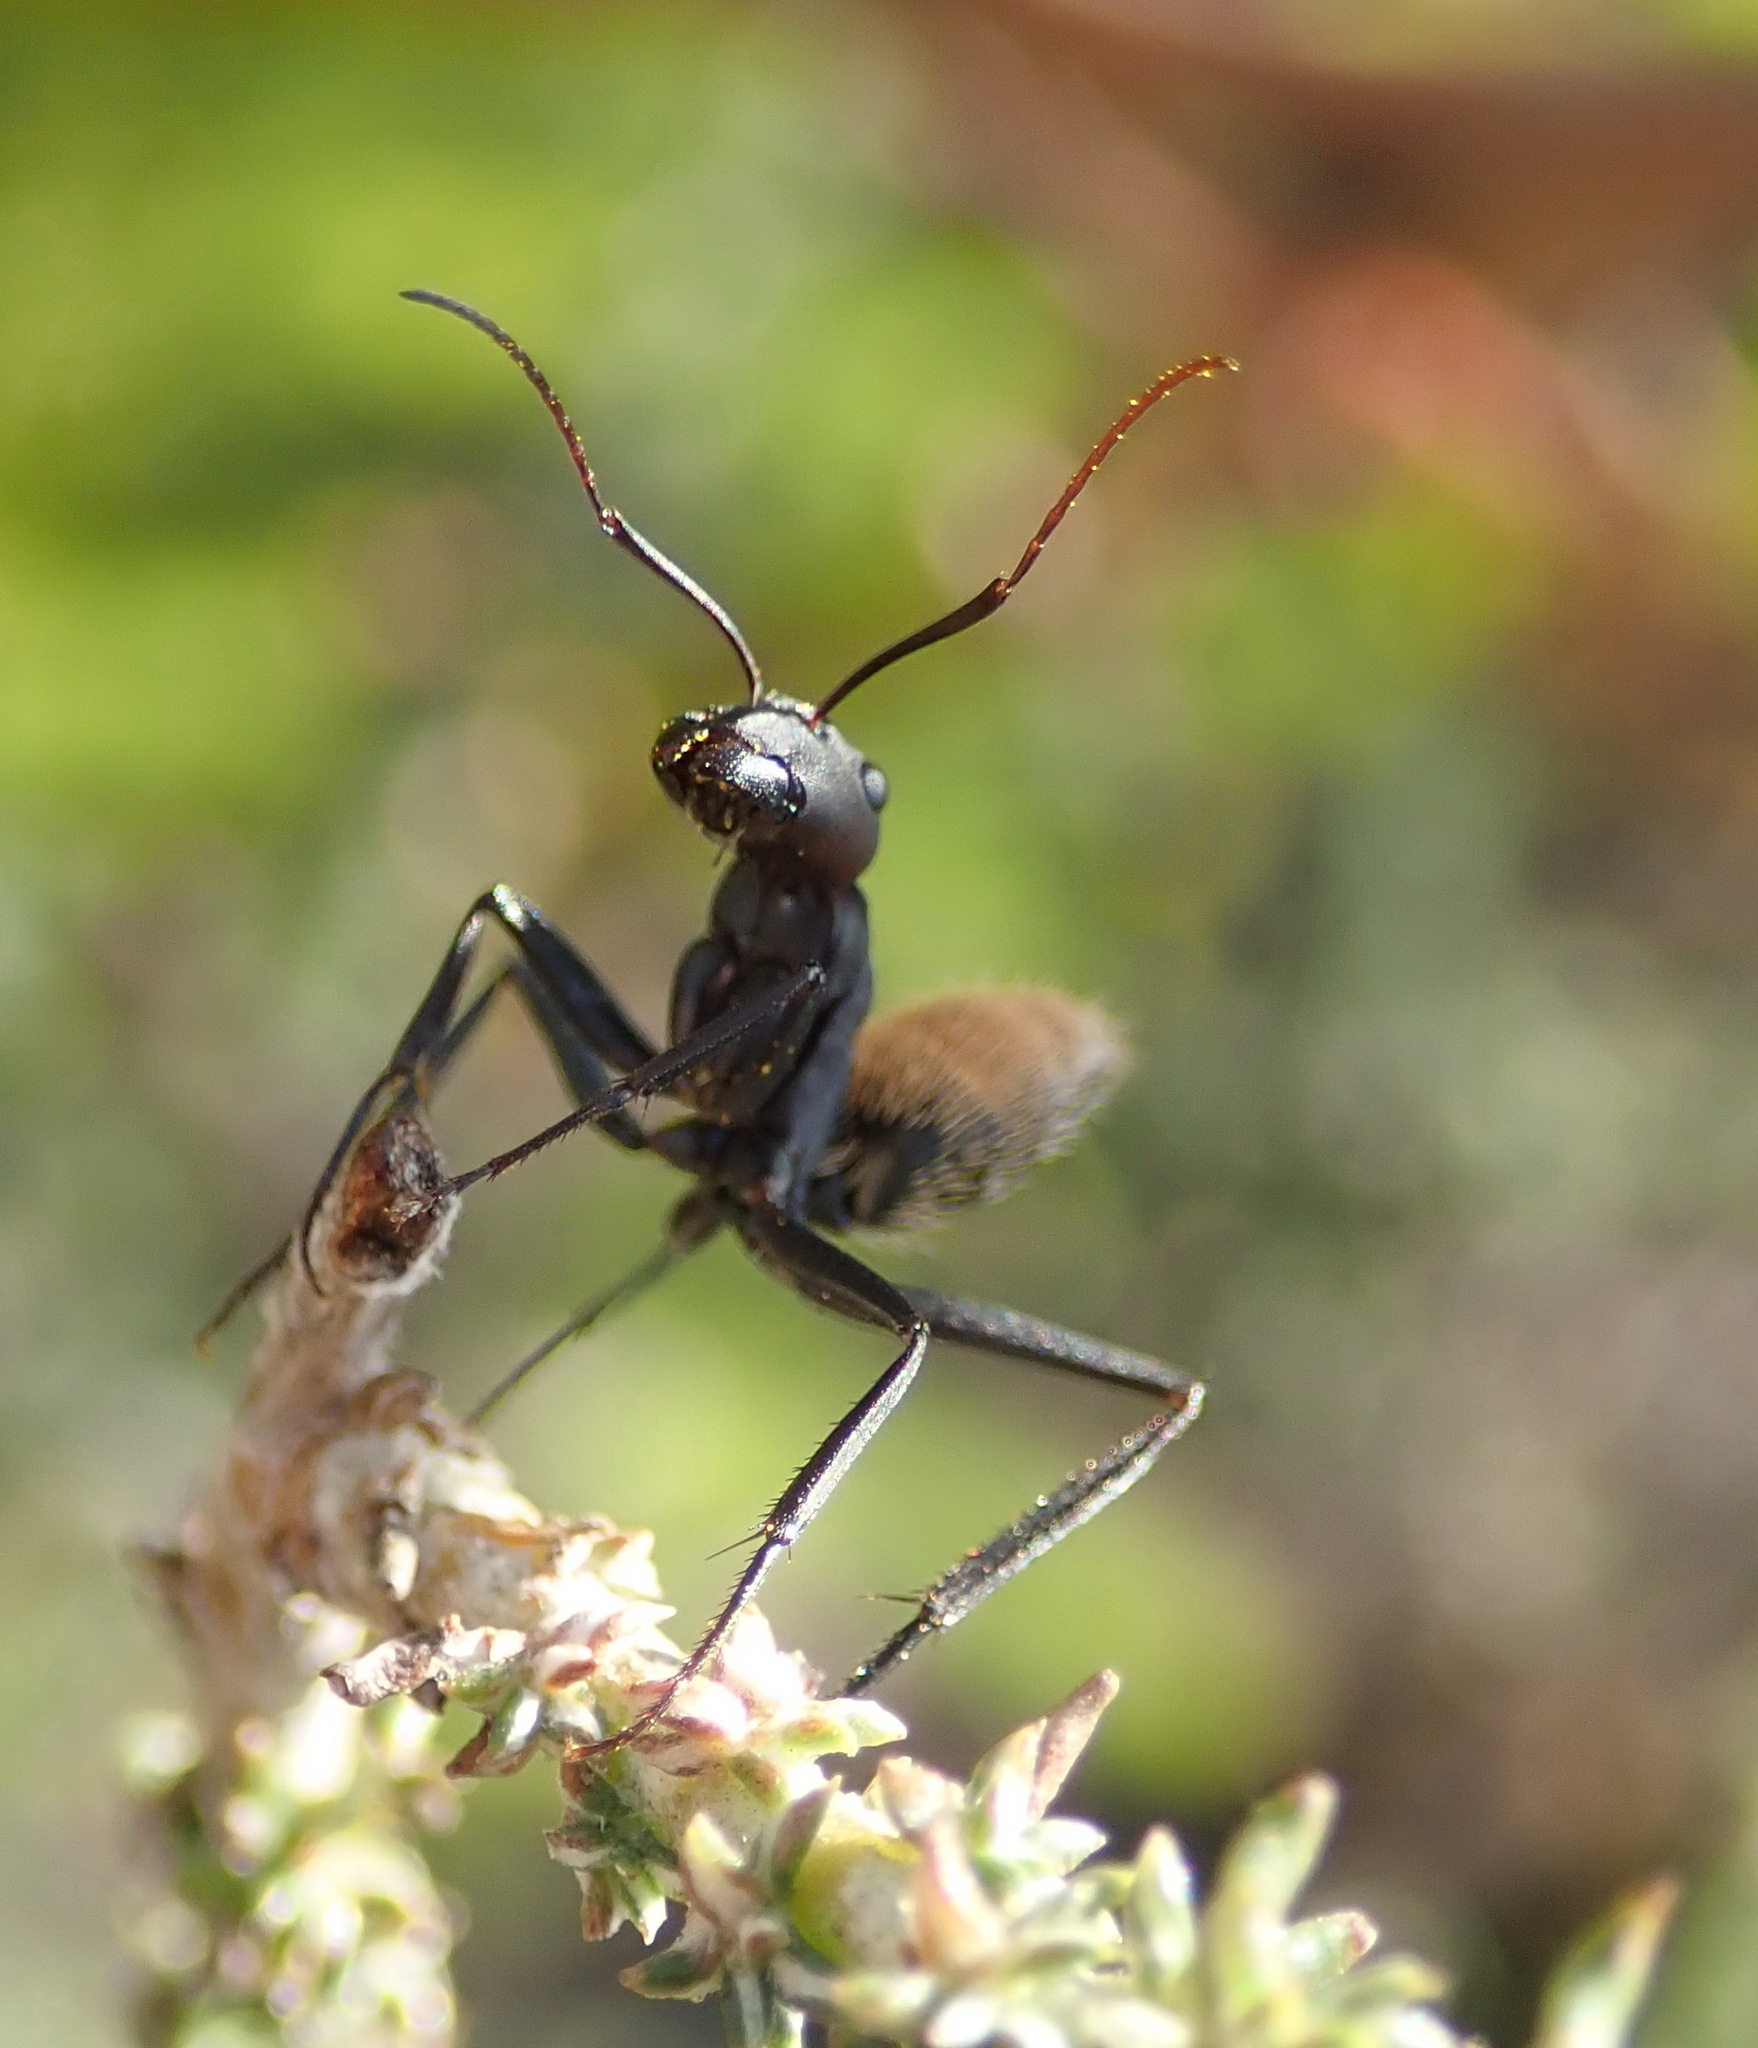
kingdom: Animalia
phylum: Arthropoda
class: Insecta
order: Hymenoptera
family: Formicidae
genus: Camponotus
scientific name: Camponotus fulvopilosus
